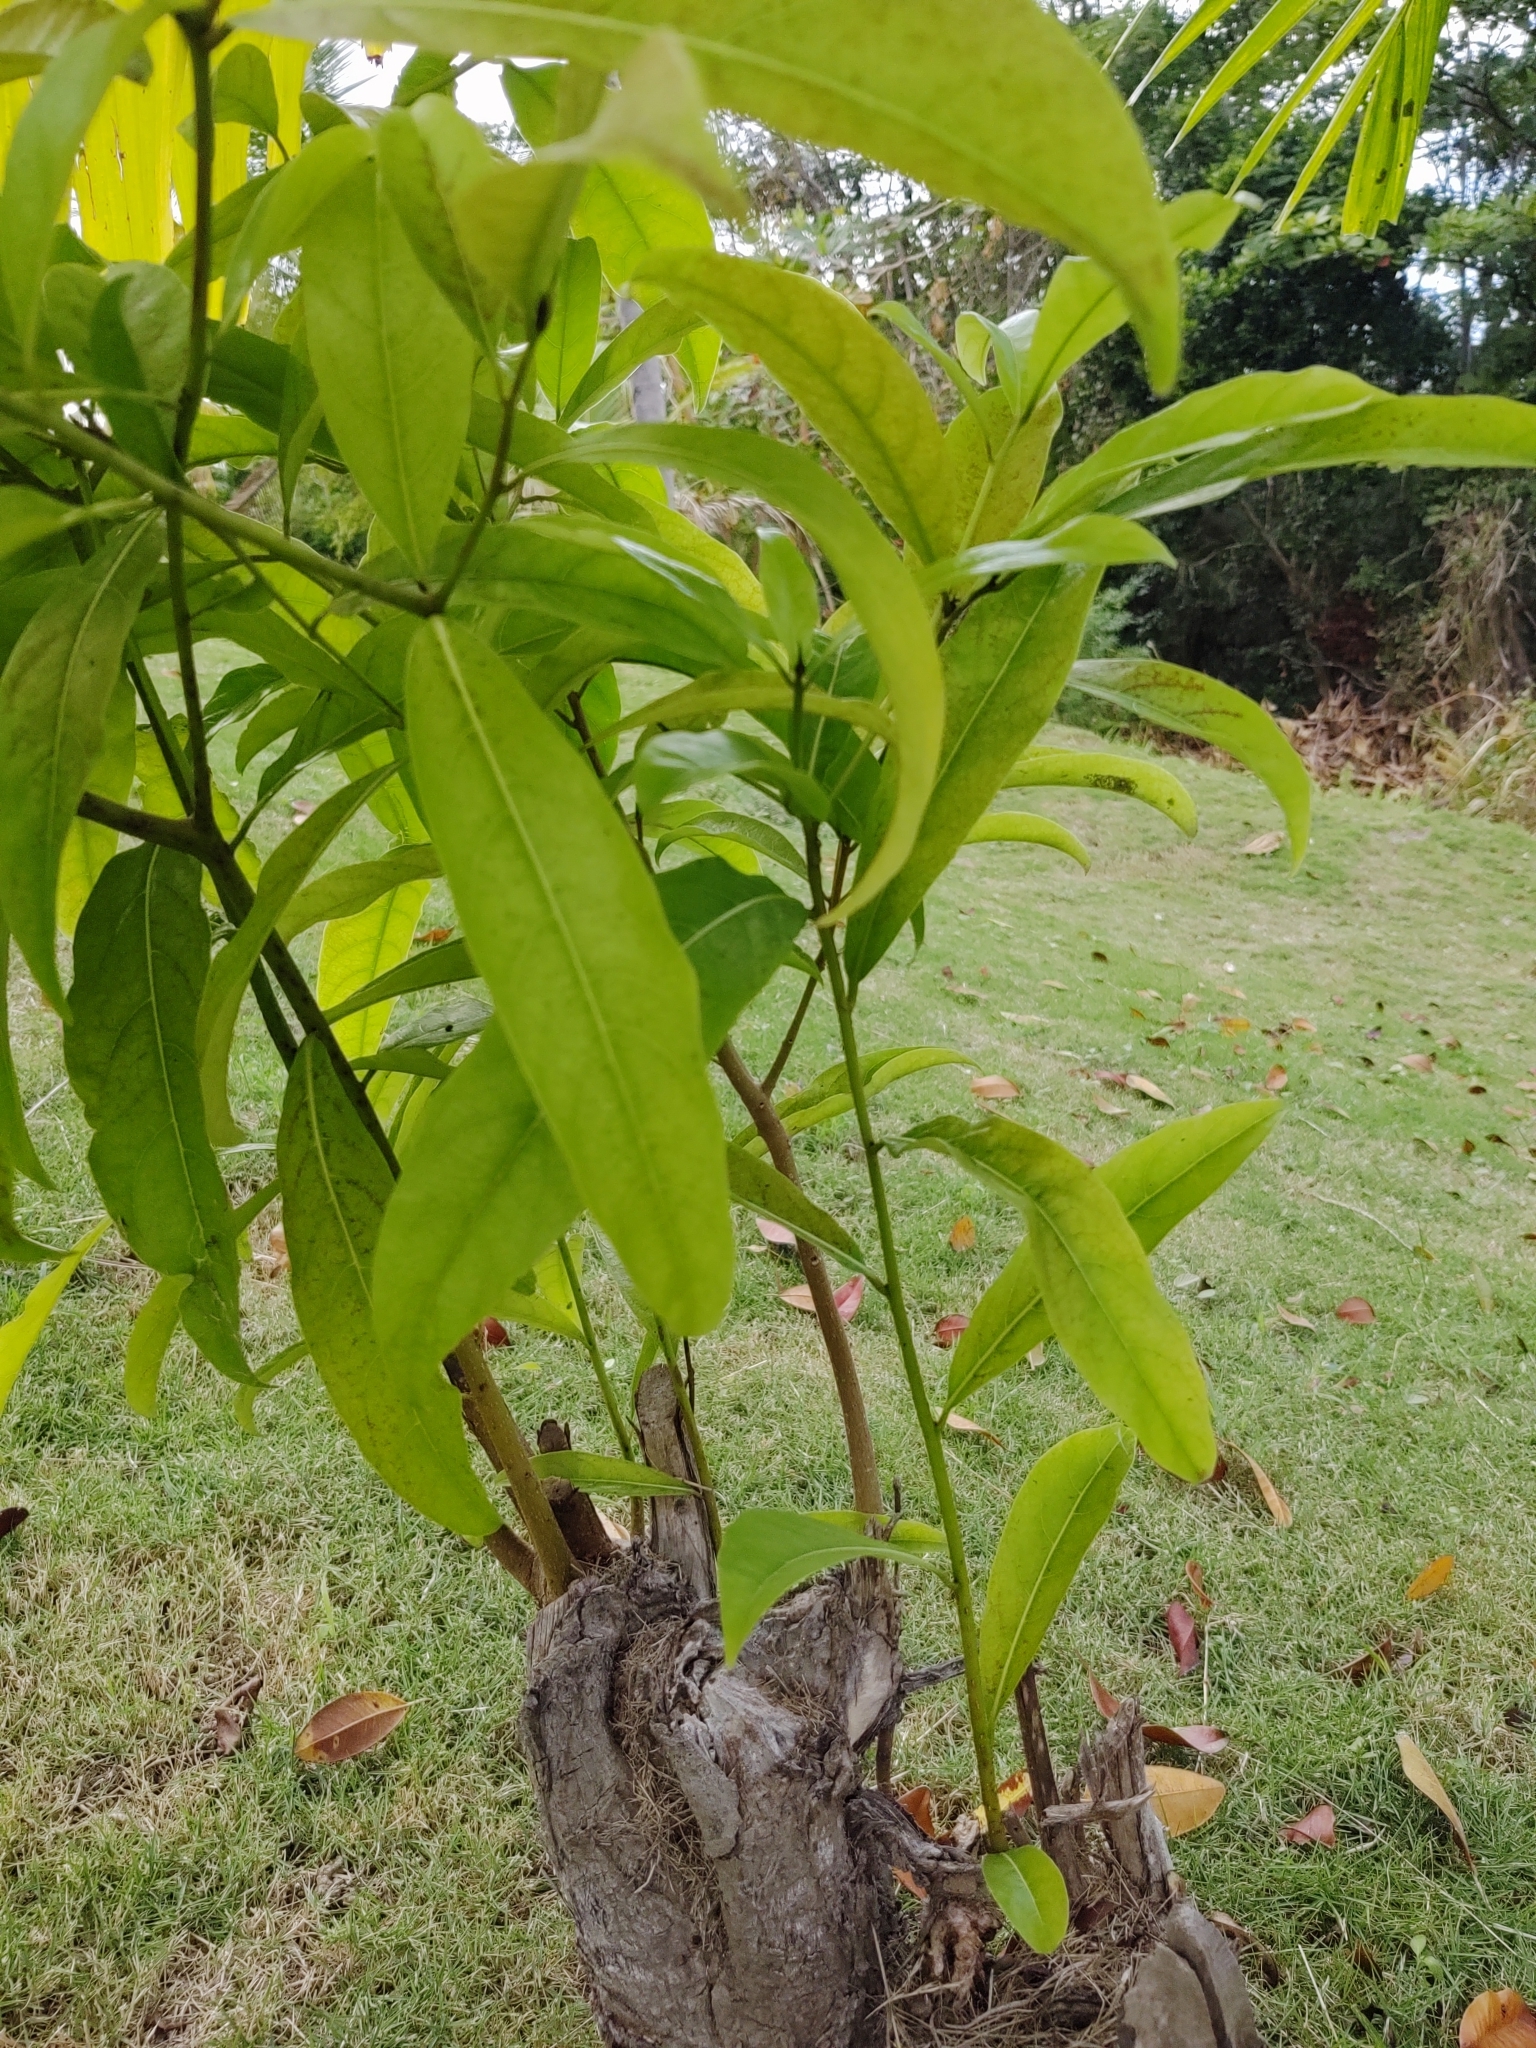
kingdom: Plantae
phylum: Tracheophyta
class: Magnoliopsida
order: Sapindales
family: Anacardiaceae
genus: Mangifera
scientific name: Mangifera indica
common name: Mango
